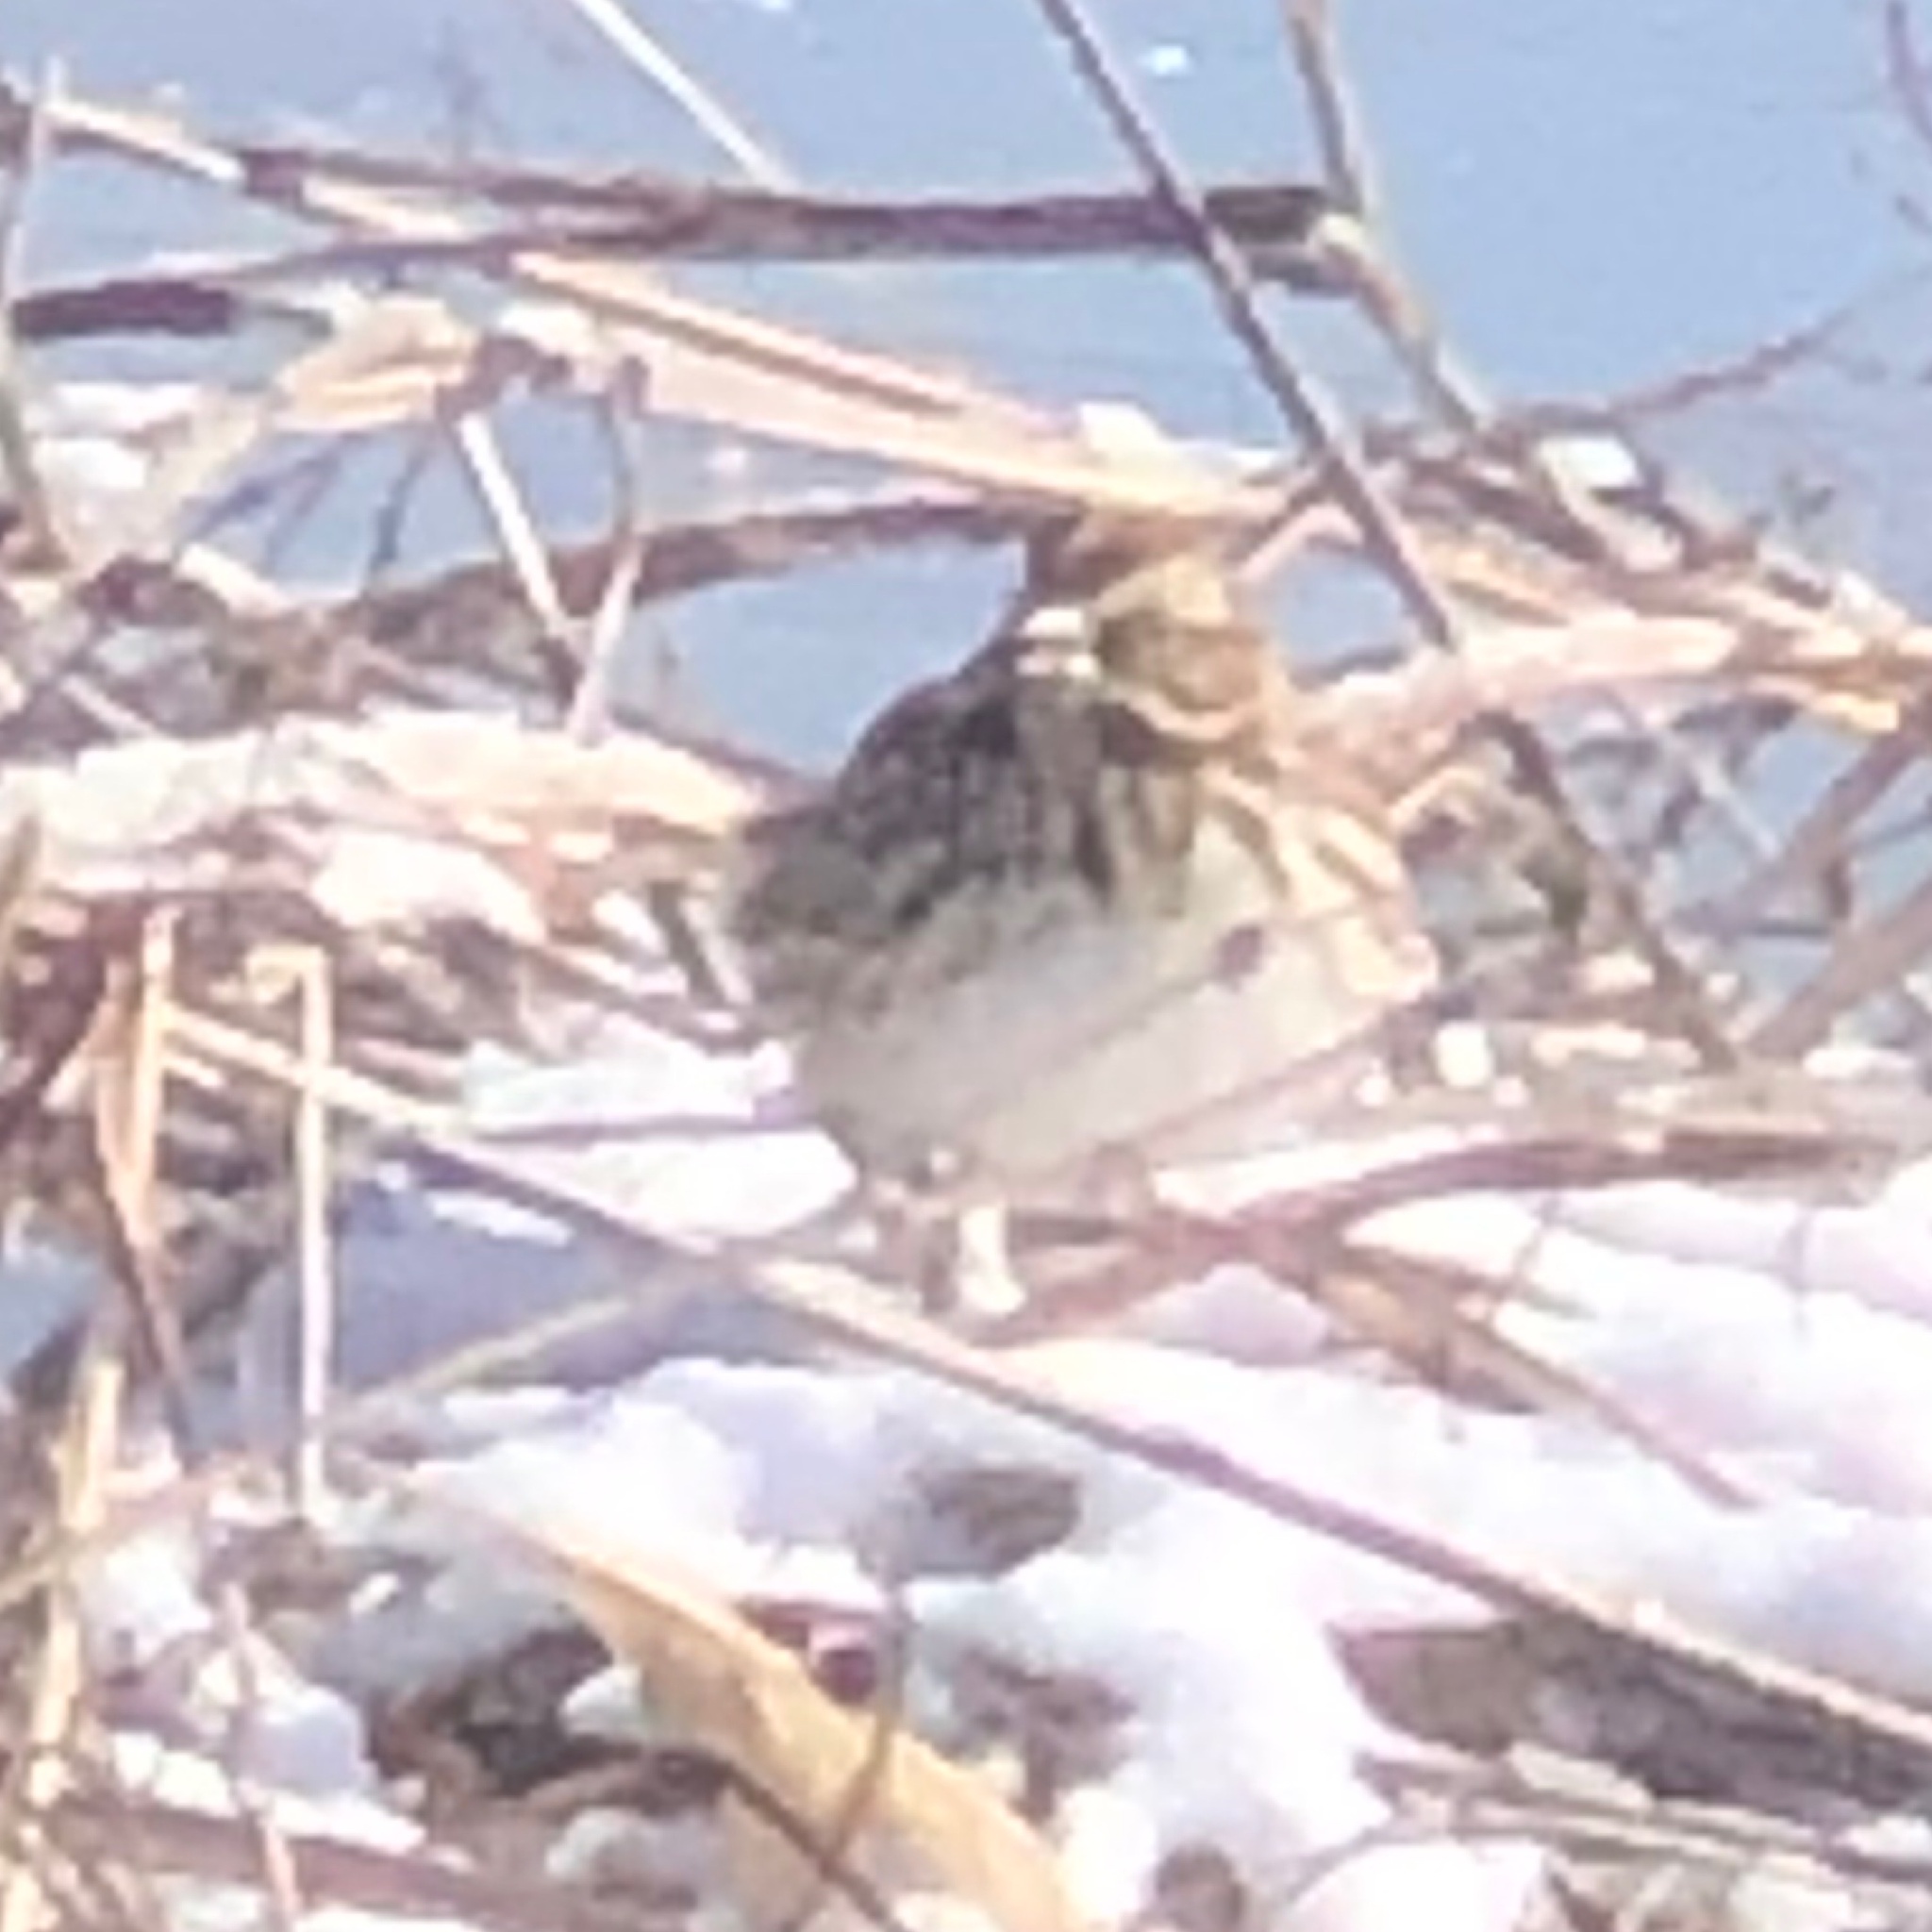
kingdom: Animalia
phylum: Chordata
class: Aves
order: Passeriformes
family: Passerellidae
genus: Melospiza
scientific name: Melospiza melodia
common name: Song sparrow
